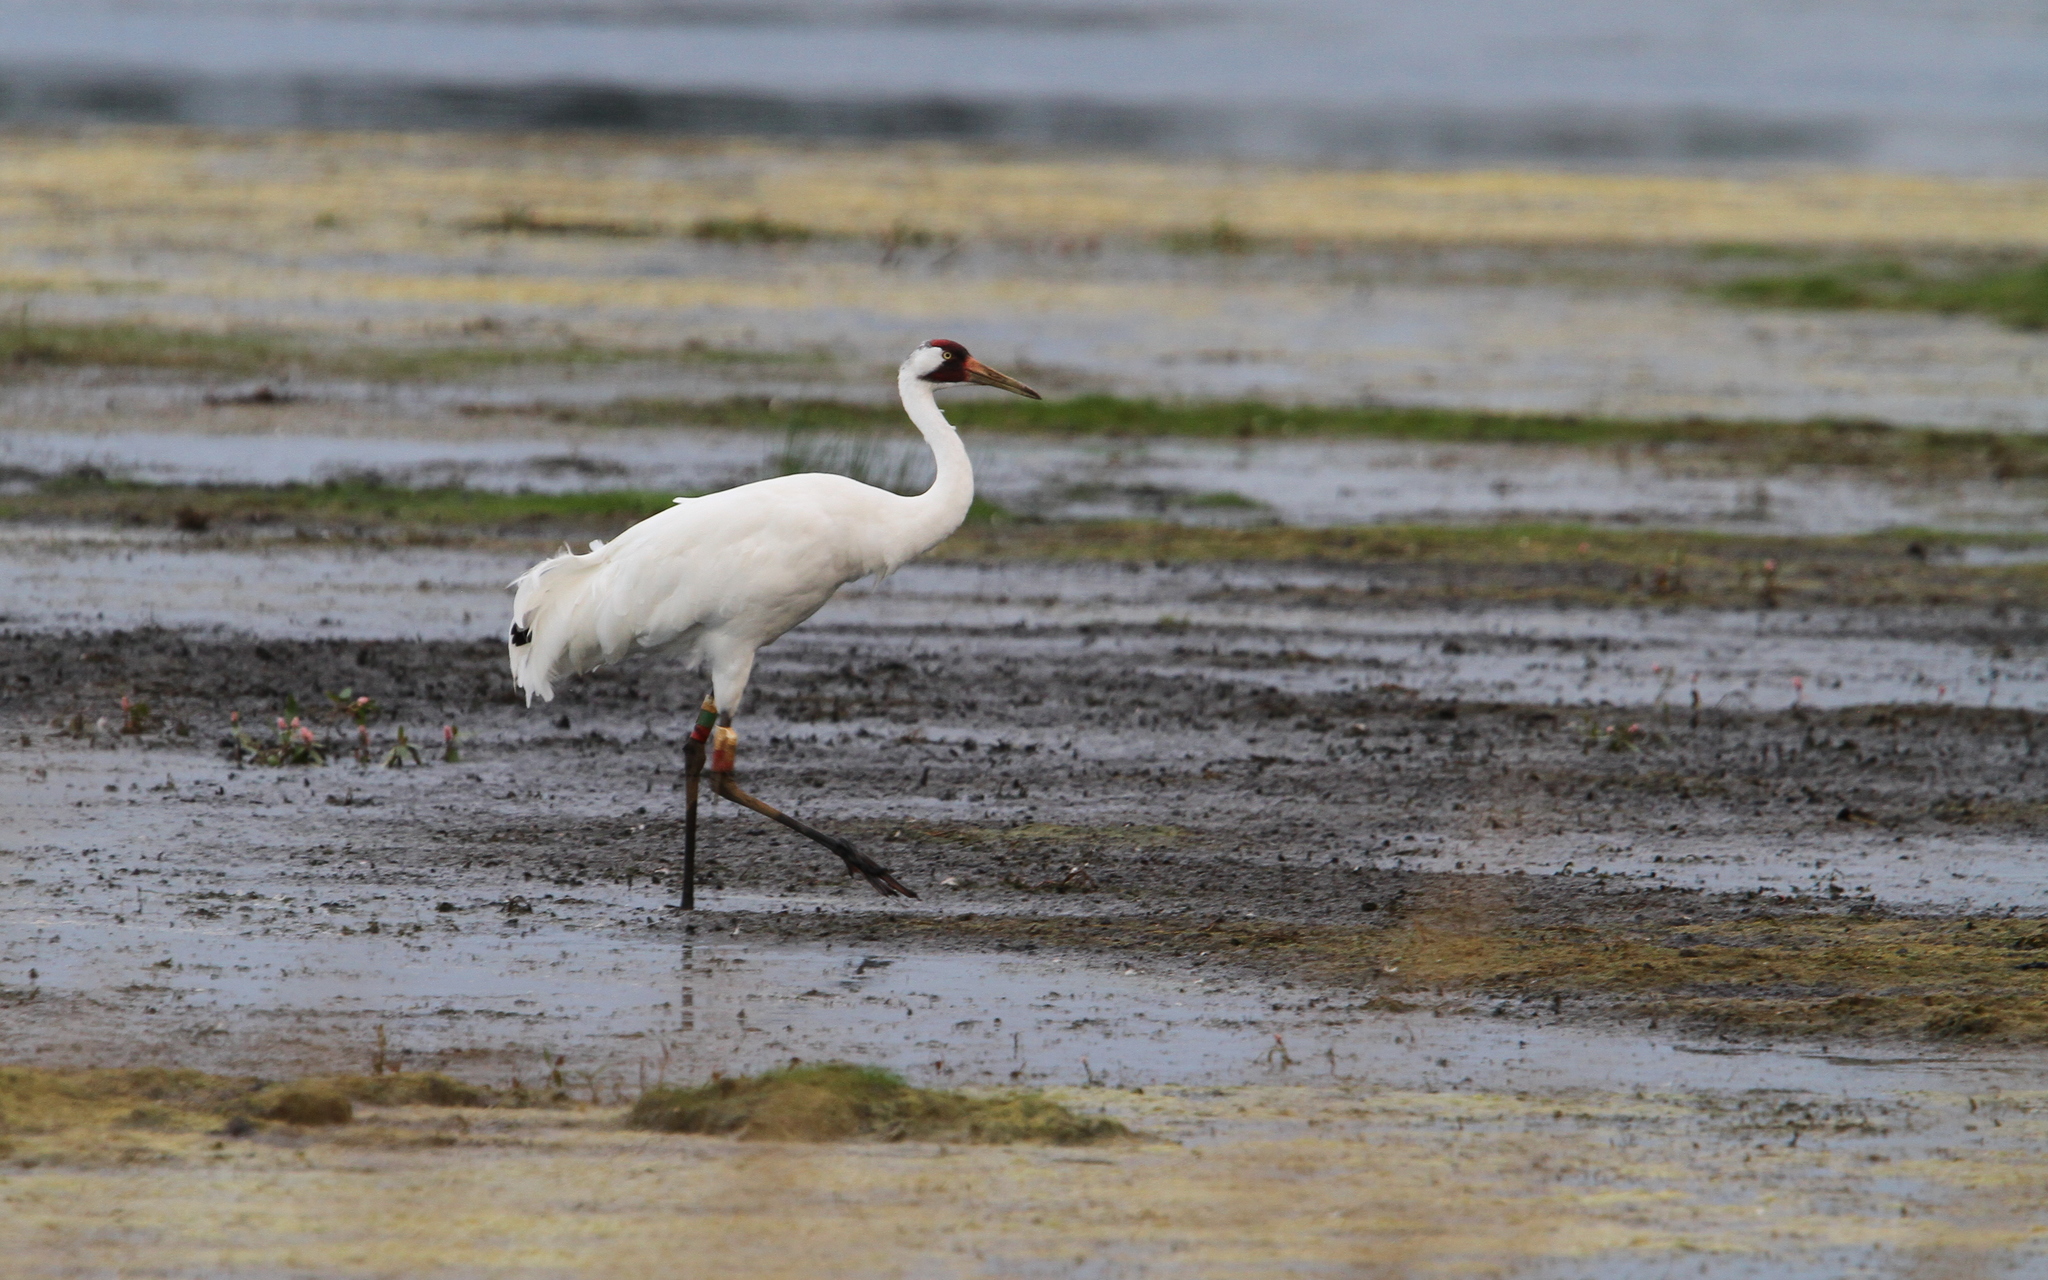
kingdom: Animalia
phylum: Chordata
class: Aves
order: Gruiformes
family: Gruidae
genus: Grus
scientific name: Grus americana
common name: Whooping crane
